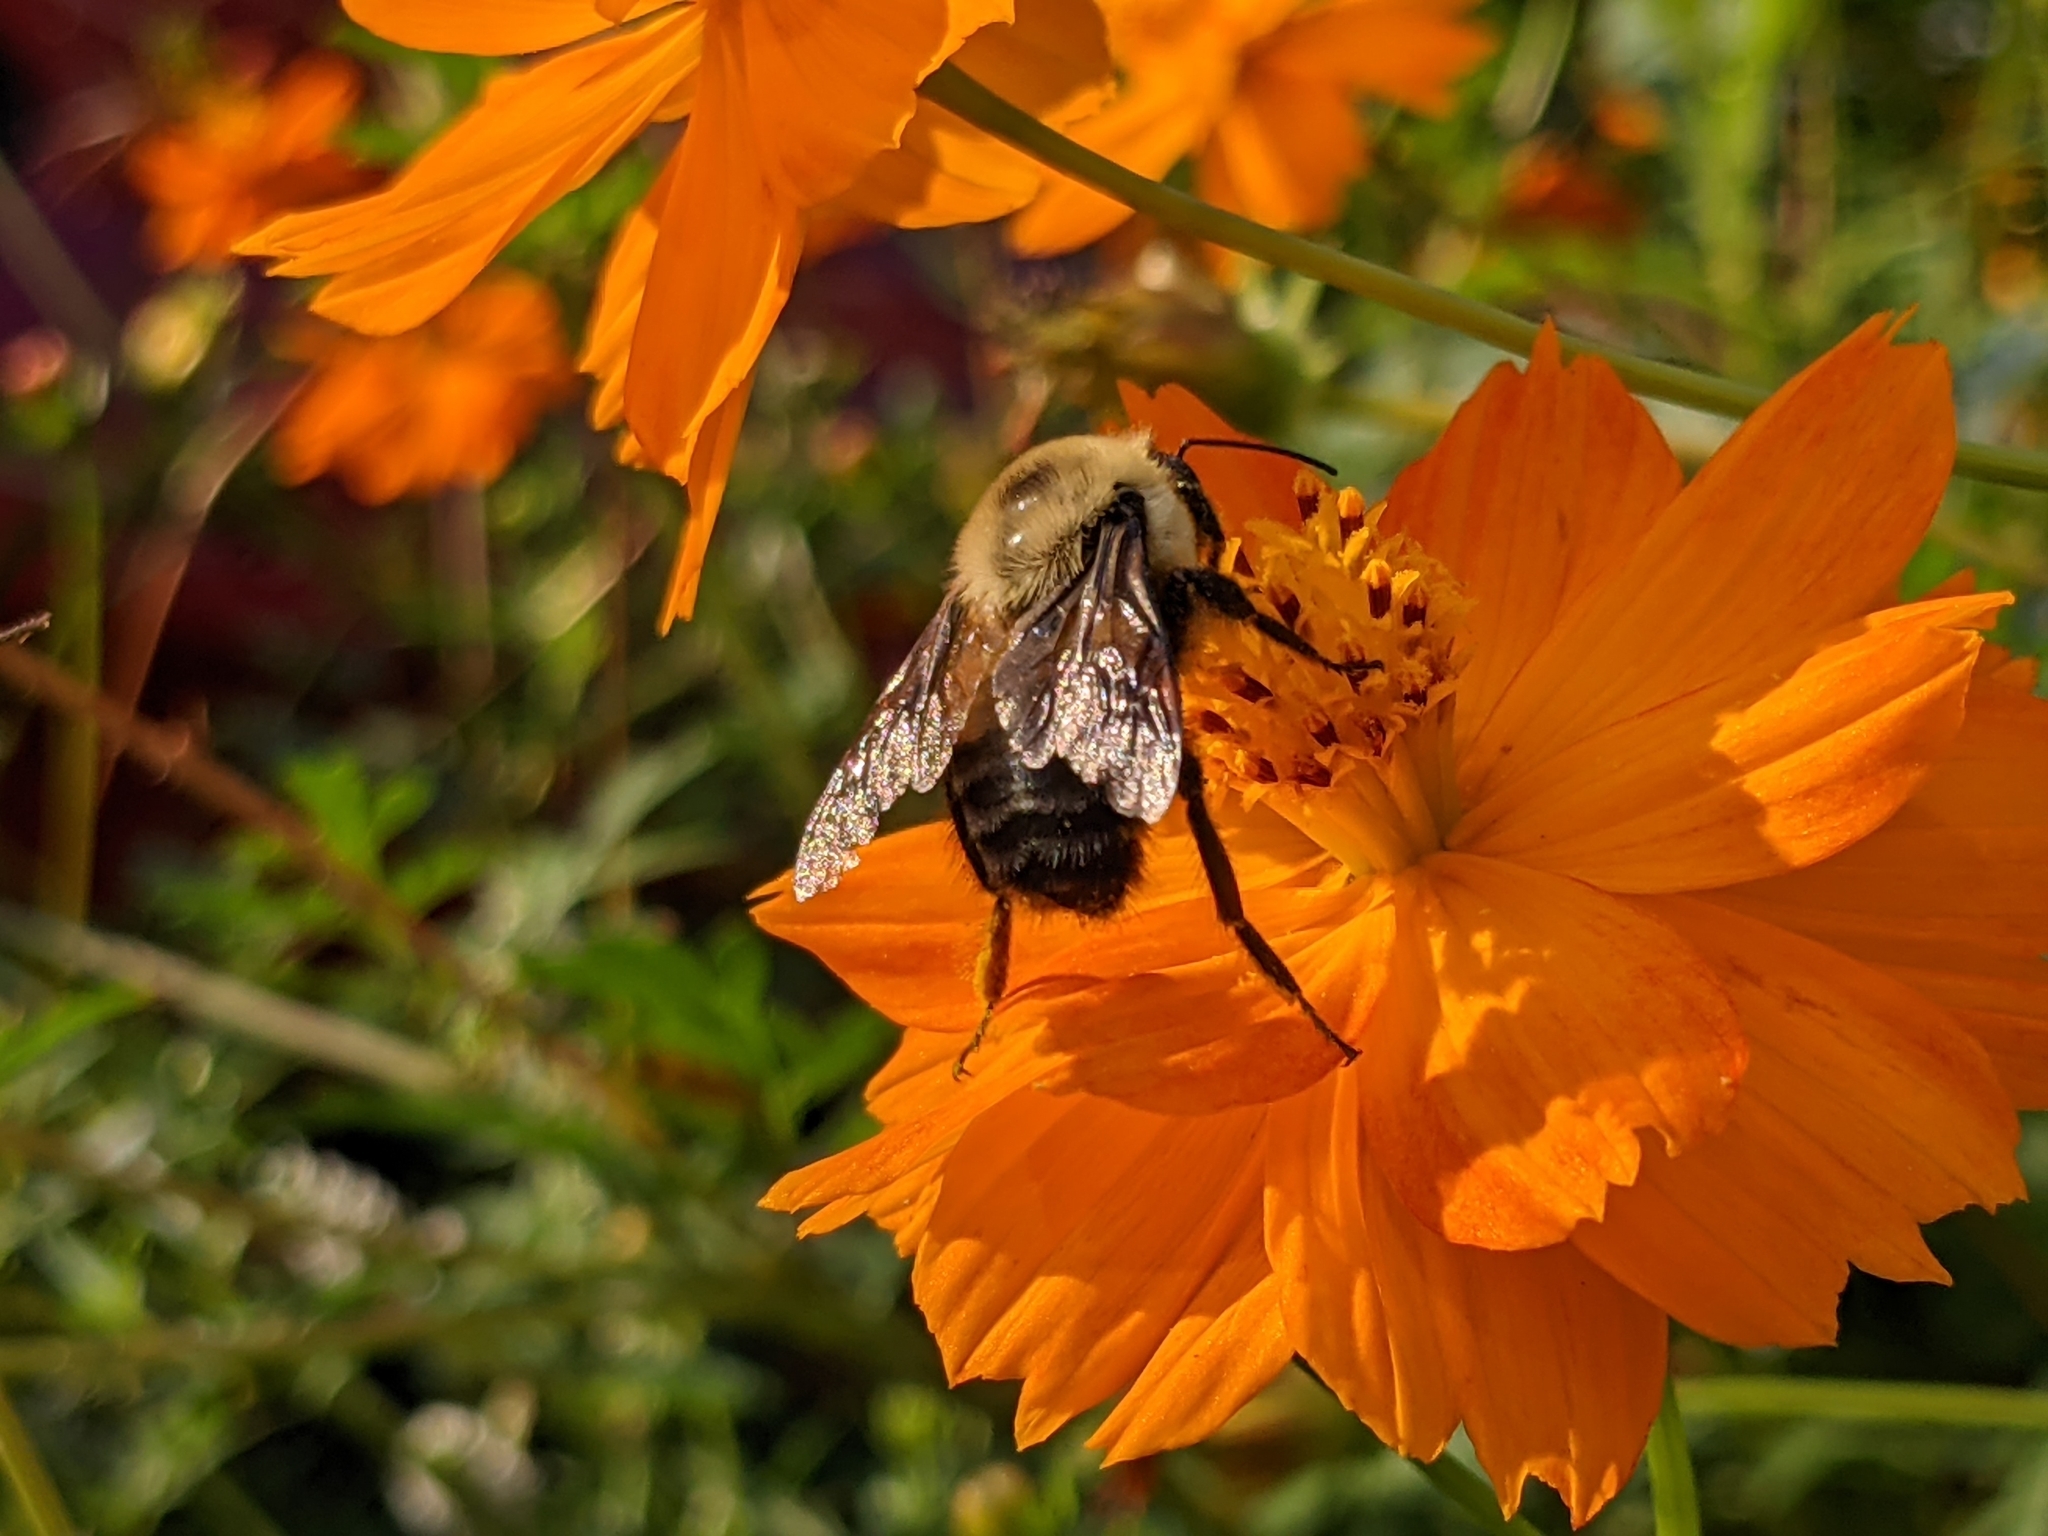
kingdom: Animalia
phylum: Arthropoda
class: Insecta
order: Hymenoptera
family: Apidae
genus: Bombus
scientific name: Bombus griseocollis
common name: Brown-belted bumble bee
